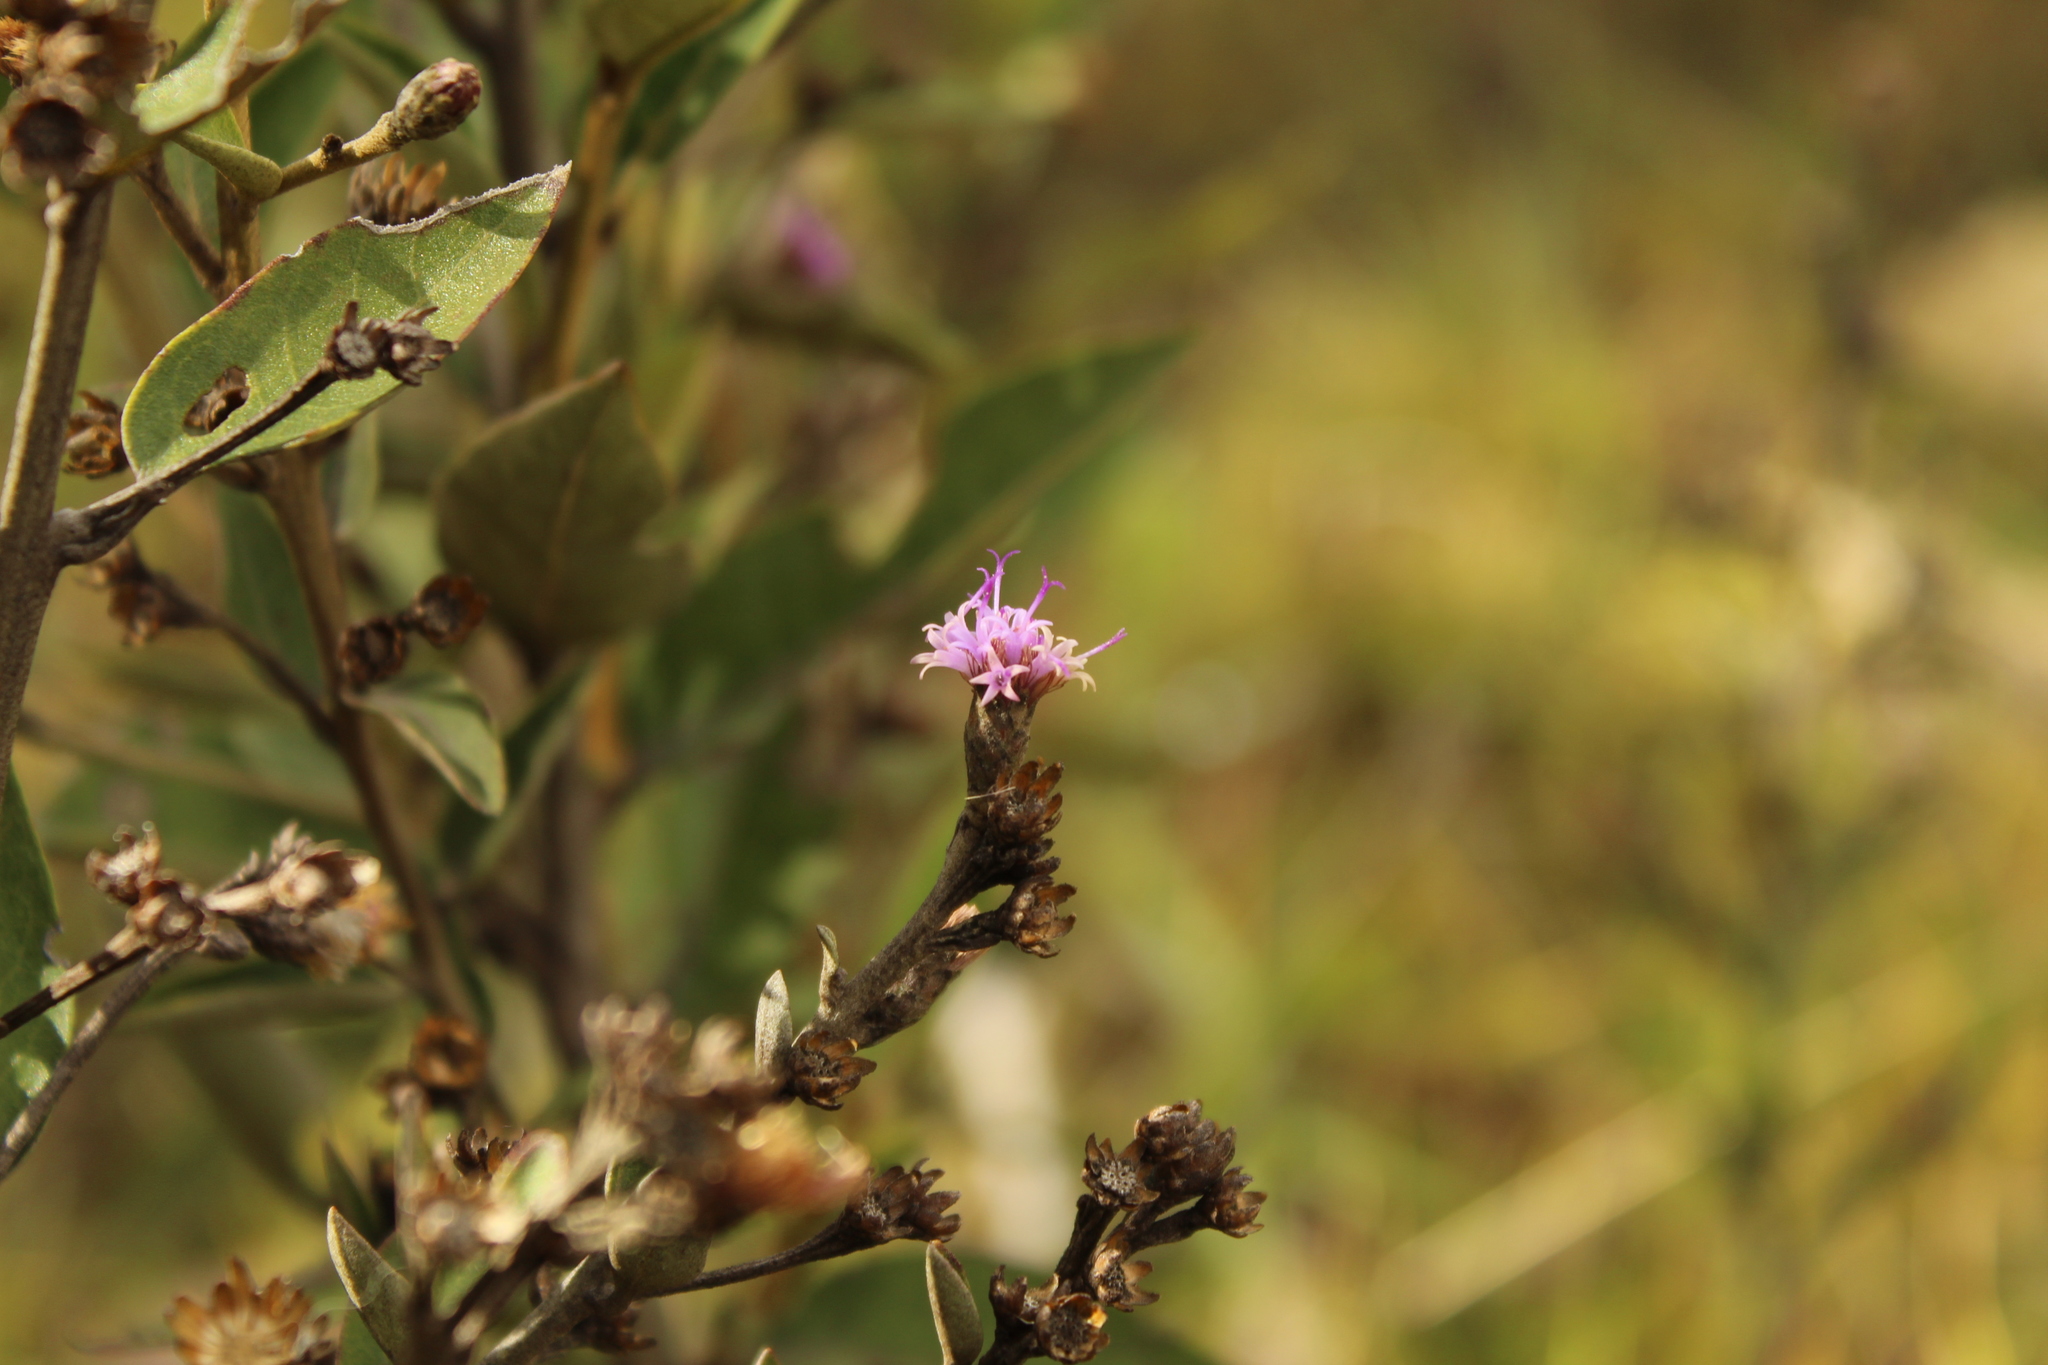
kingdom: Plantae
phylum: Tracheophyta
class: Magnoliopsida
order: Asterales
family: Asteraceae
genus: Lepidaploa
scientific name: Lepidaploa karstenii
